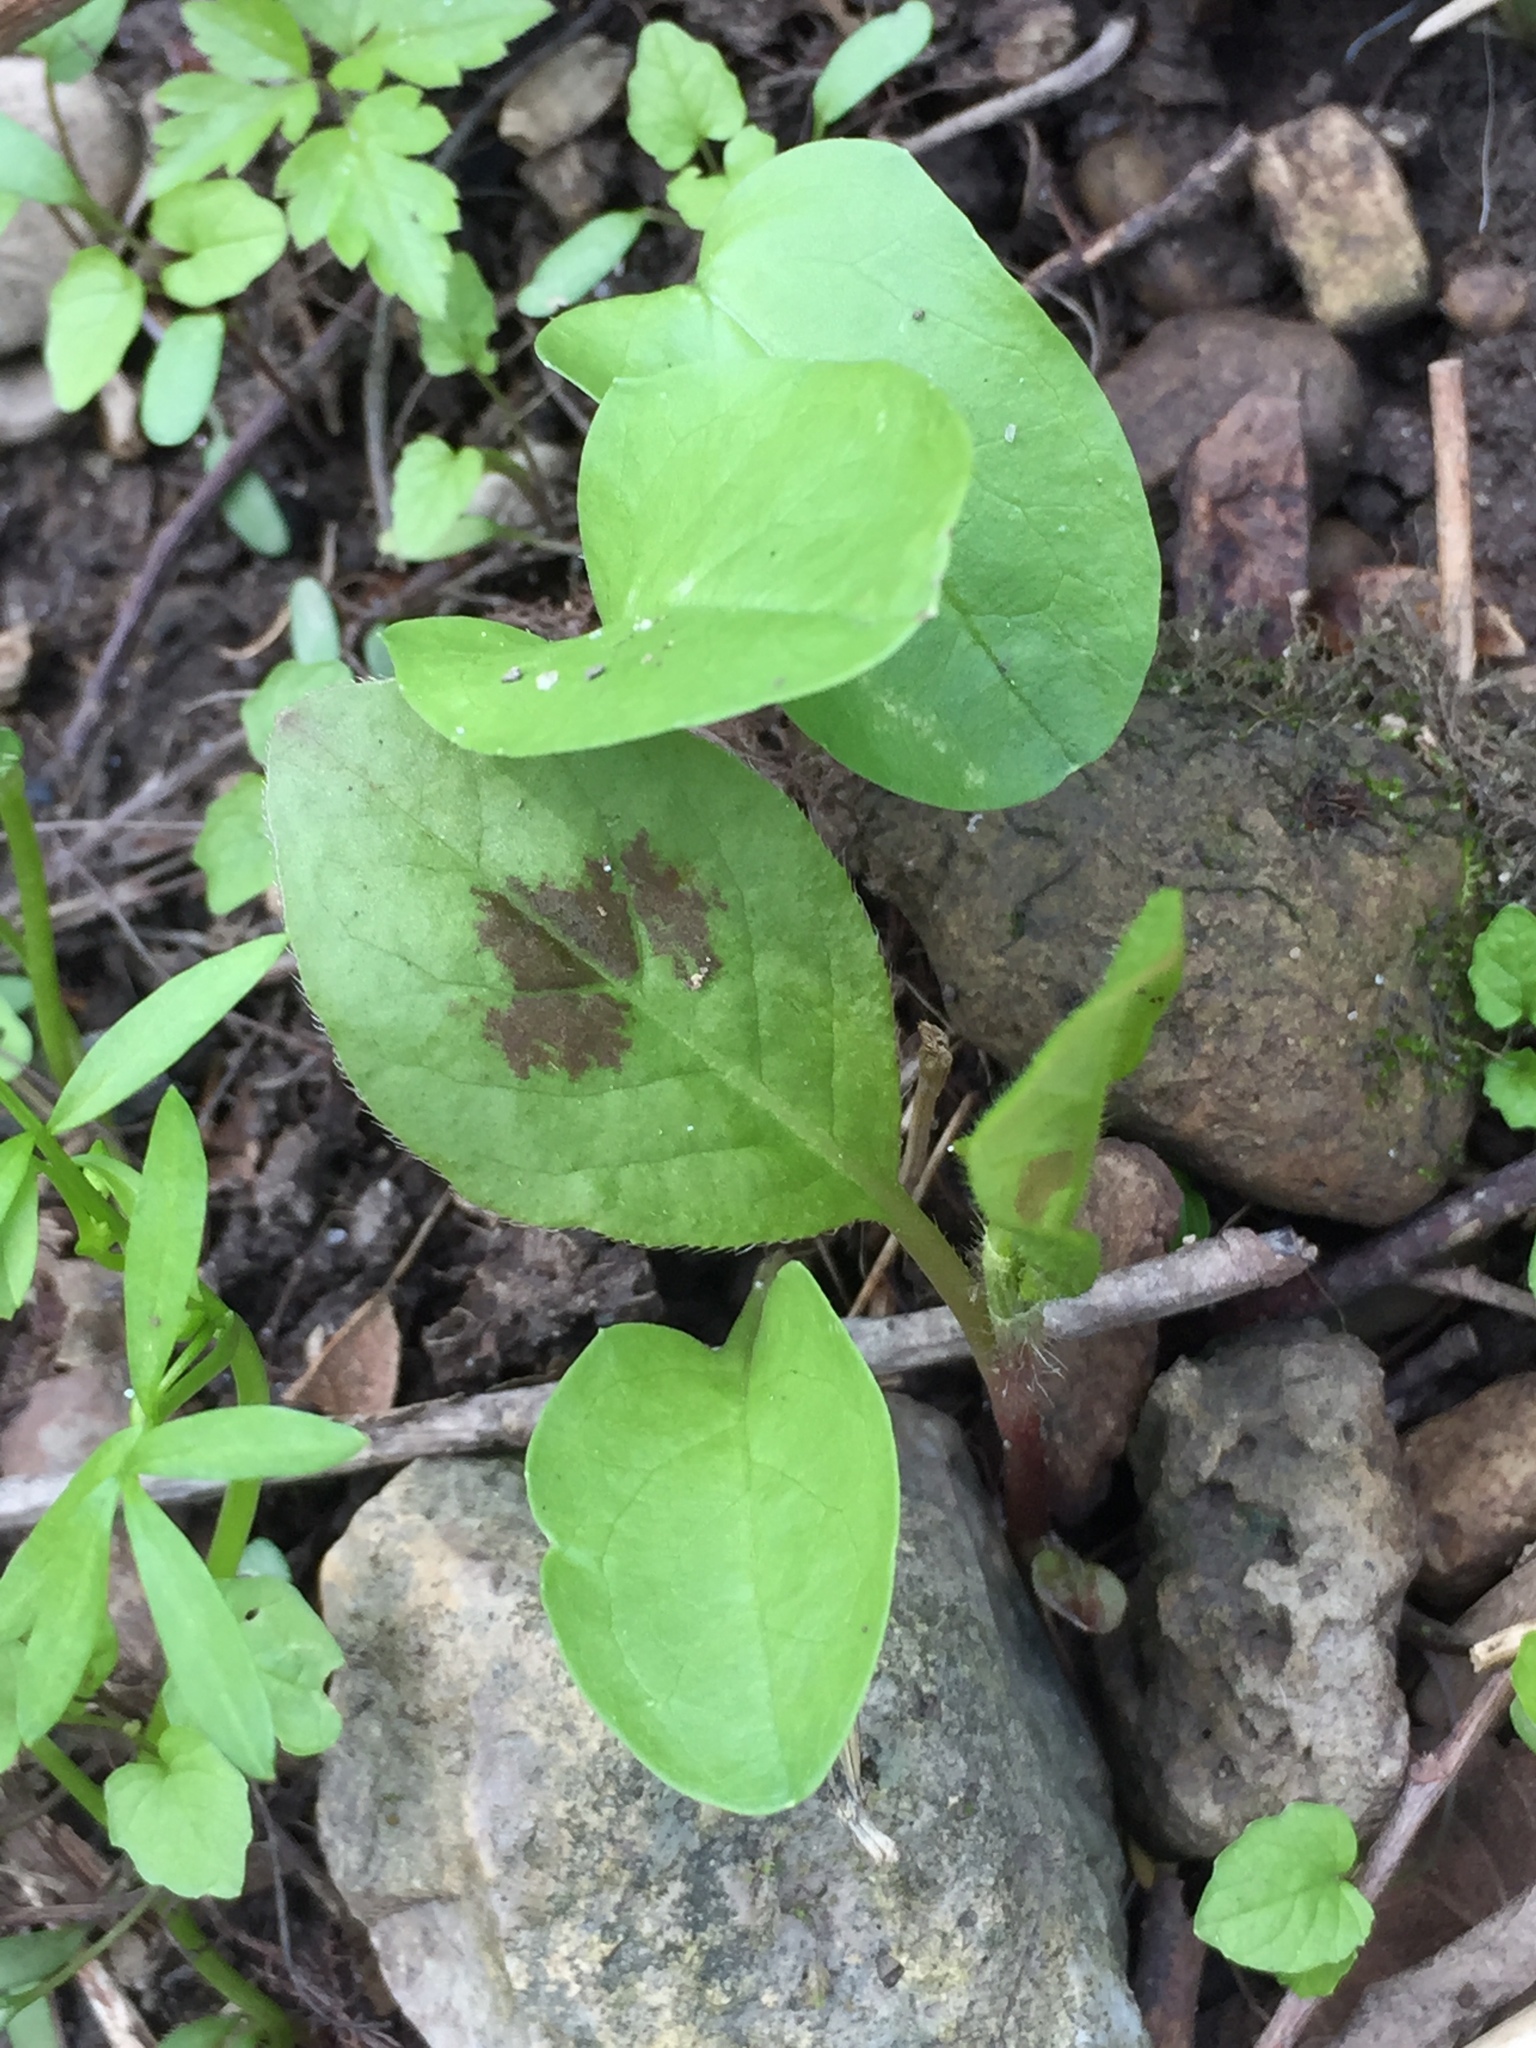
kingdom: Plantae
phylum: Tracheophyta
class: Magnoliopsida
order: Caryophyllales
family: Polygonaceae
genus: Persicaria
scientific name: Persicaria virginiana
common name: Jumpseed
